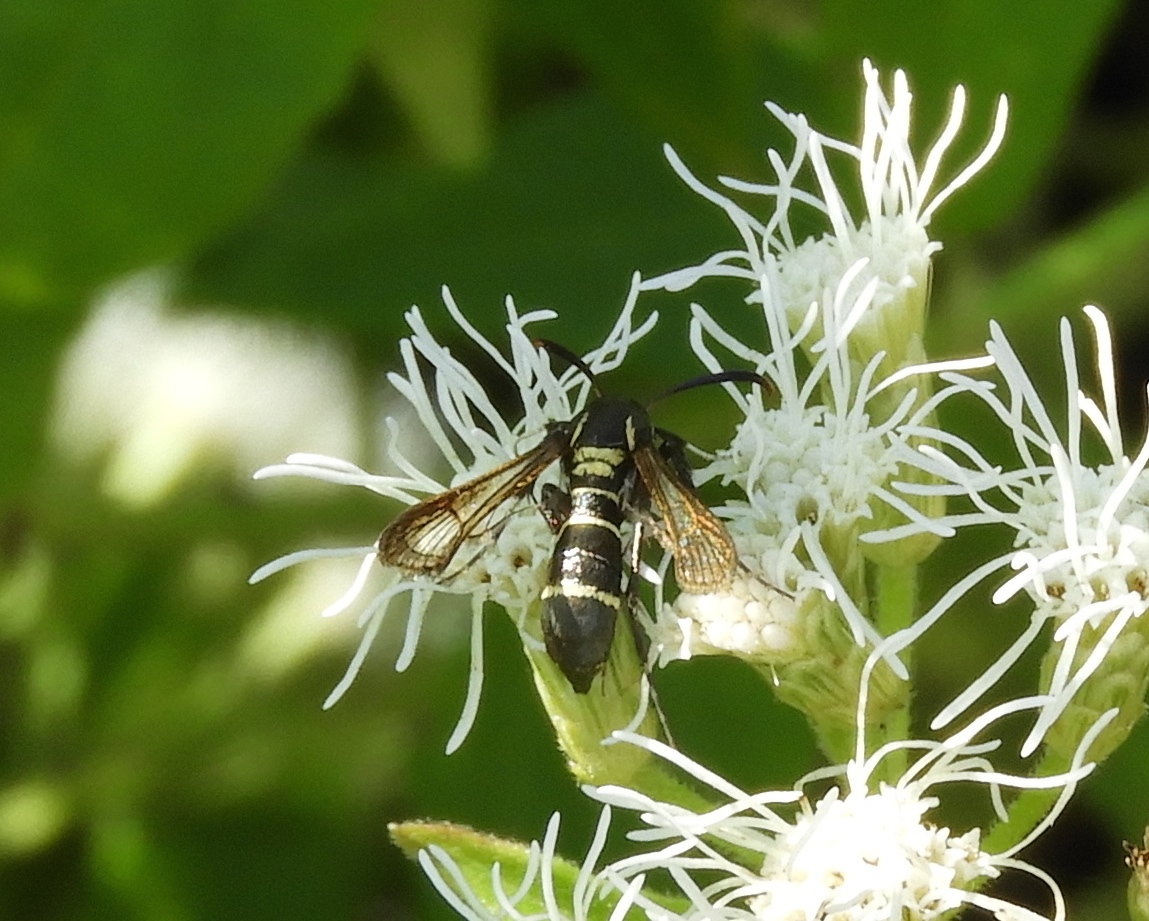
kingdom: Animalia
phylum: Arthropoda
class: Insecta
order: Lepidoptera
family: Sesiidae
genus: Carmenta
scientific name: Carmenta mimosa
